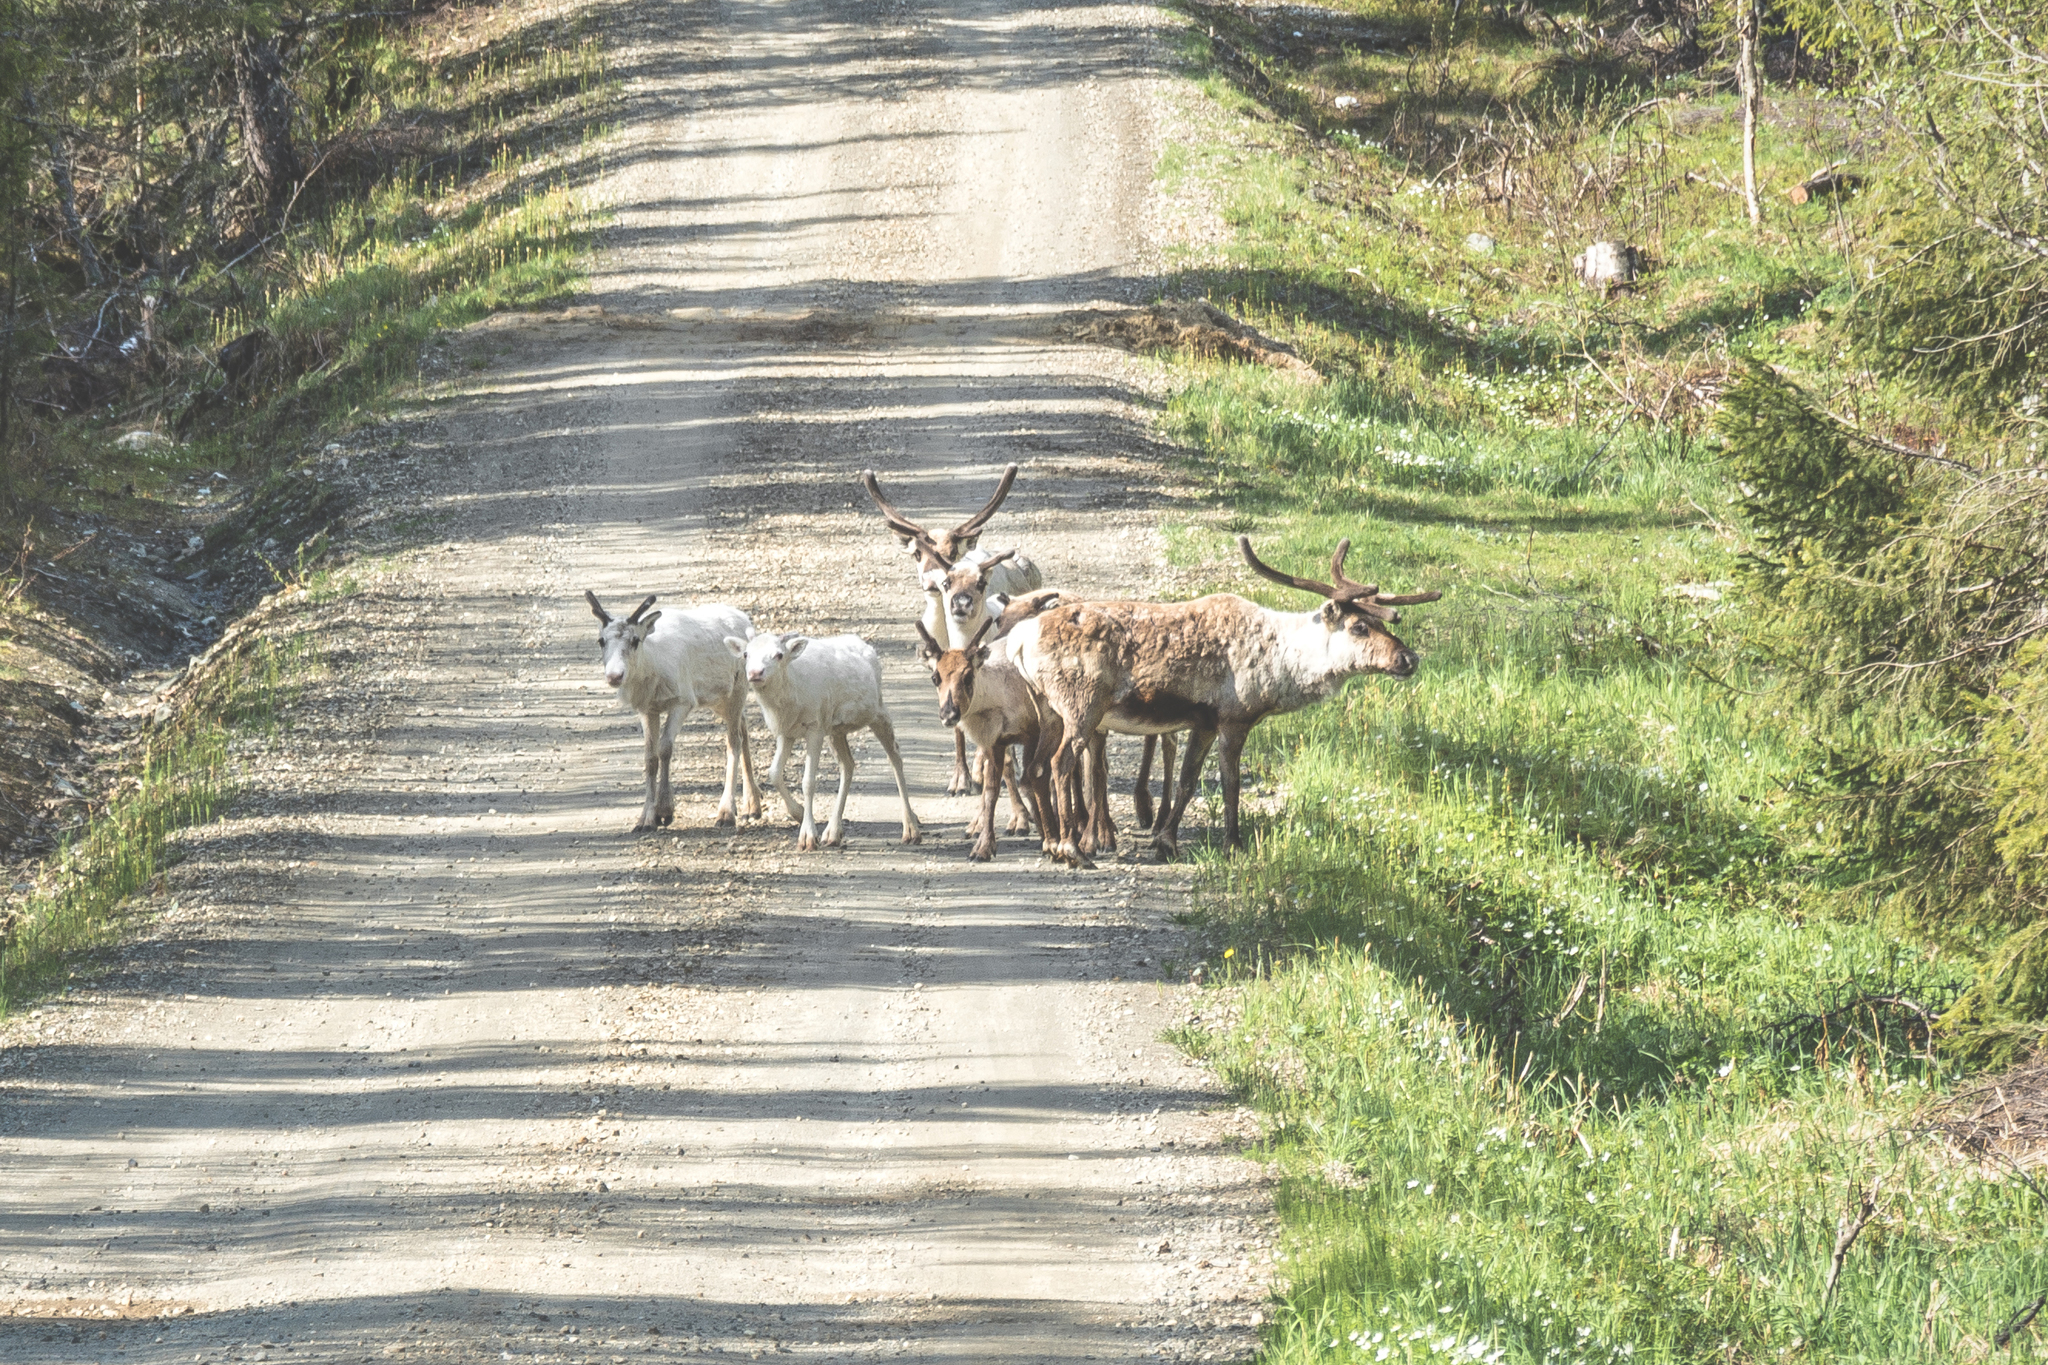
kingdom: Animalia
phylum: Chordata
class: Mammalia
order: Artiodactyla
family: Cervidae
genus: Rangifer
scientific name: Rangifer tarandus
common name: Reindeer
